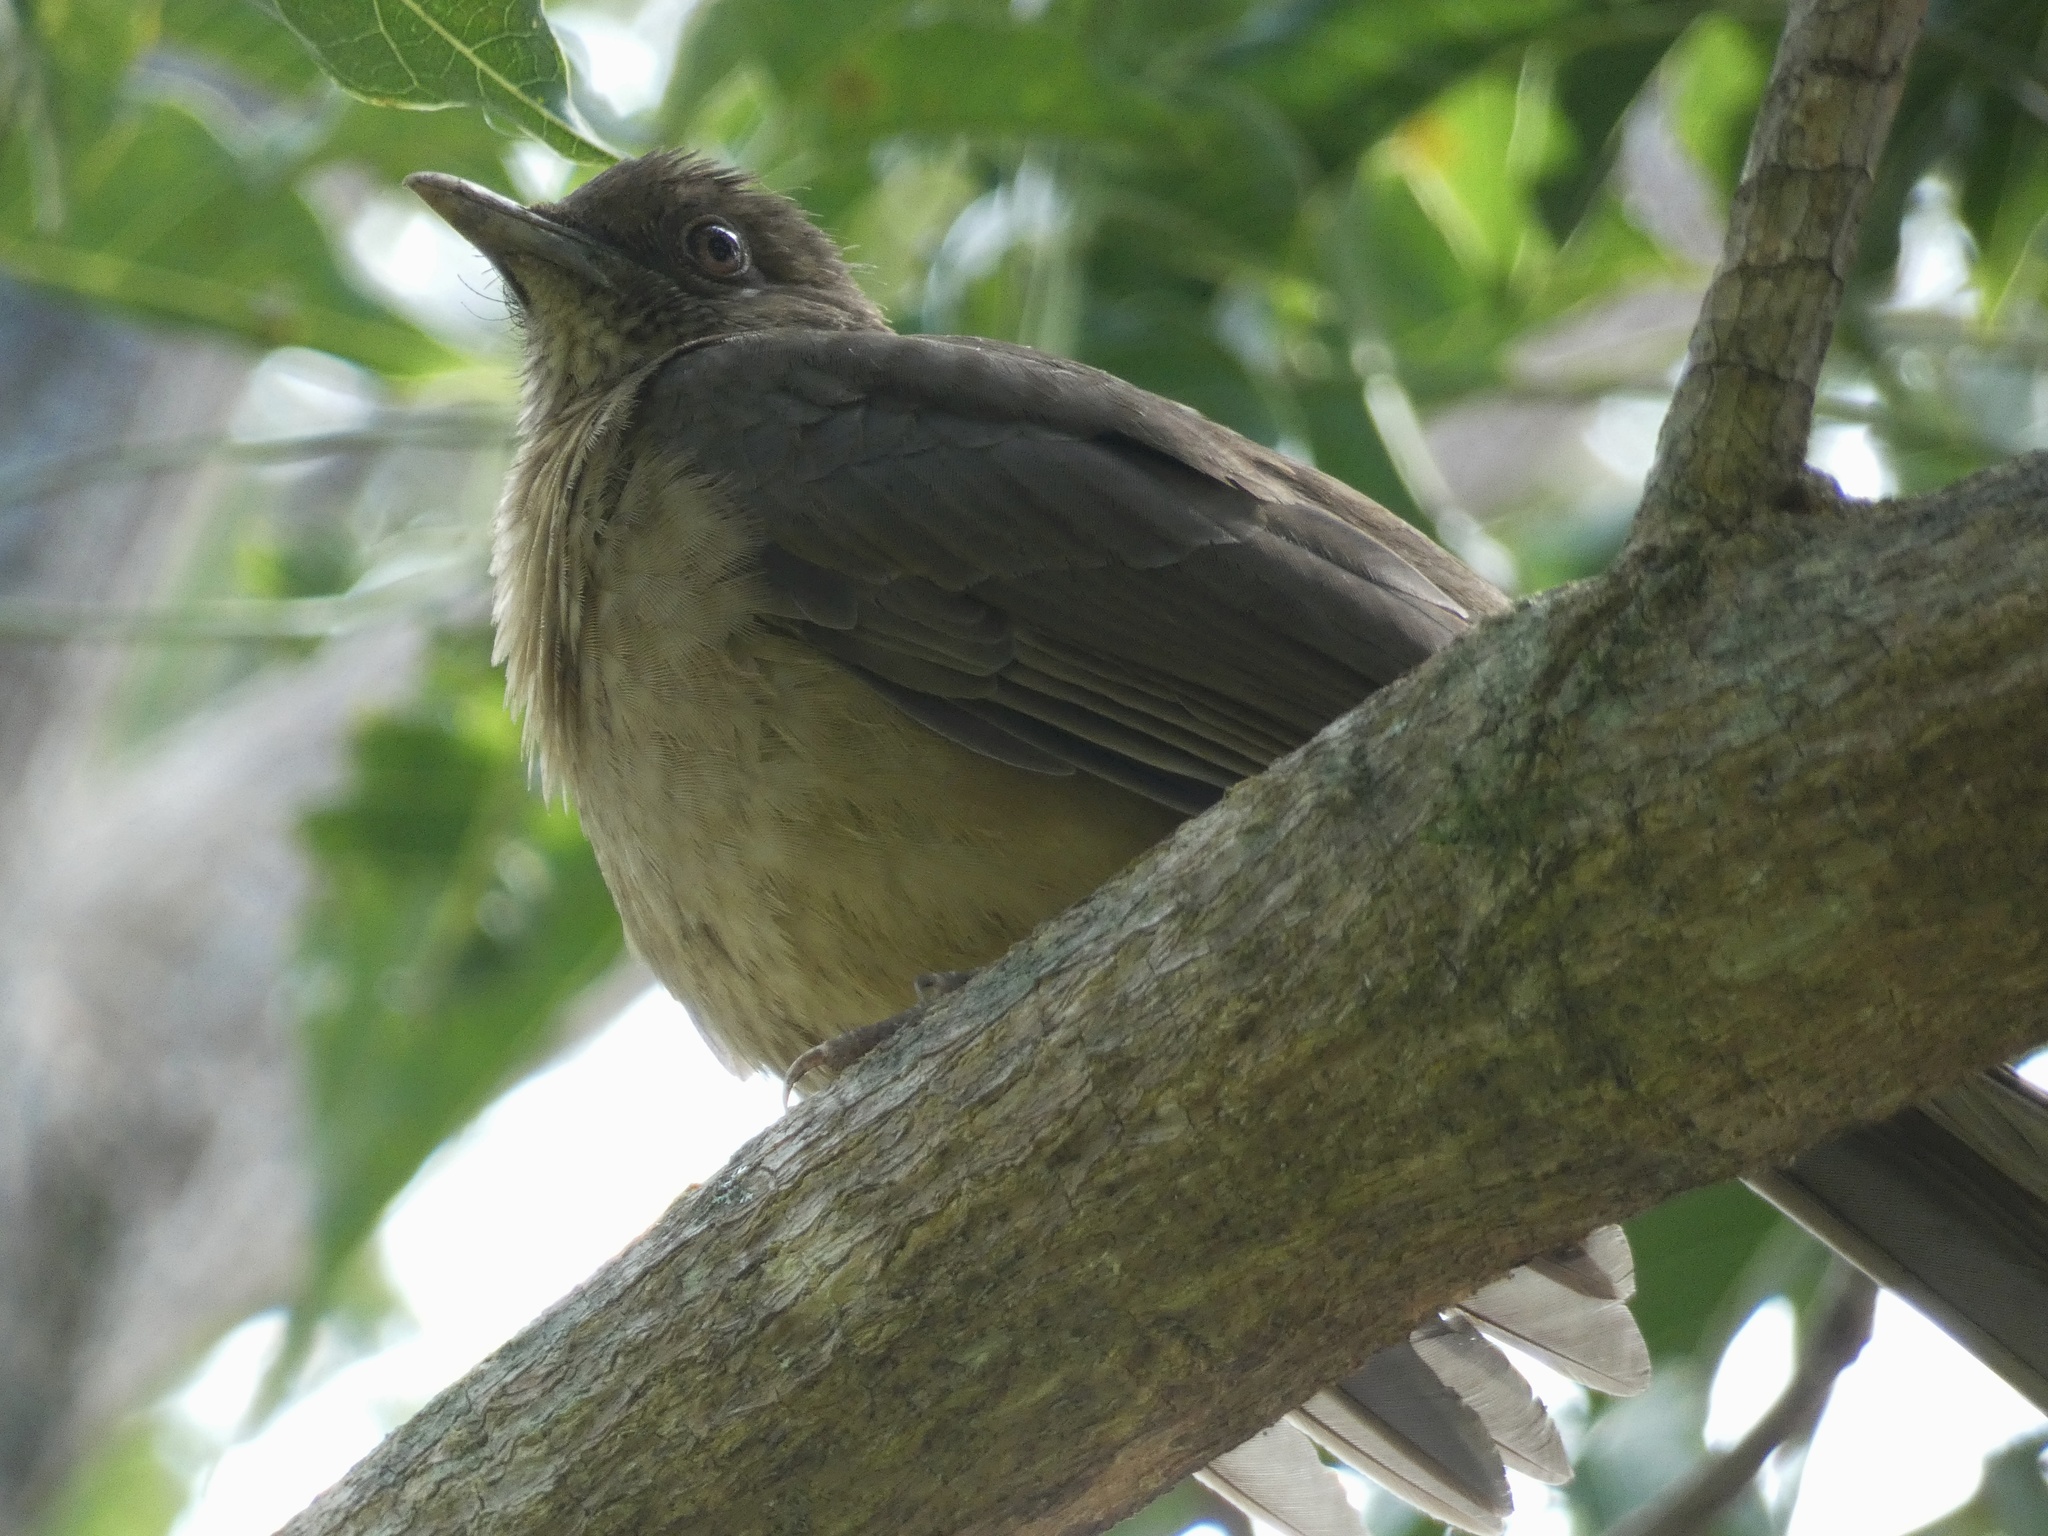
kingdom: Animalia
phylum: Chordata
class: Aves
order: Passeriformes
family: Turdidae
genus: Turdus
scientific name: Turdus grayi
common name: Clay-colored thrush
